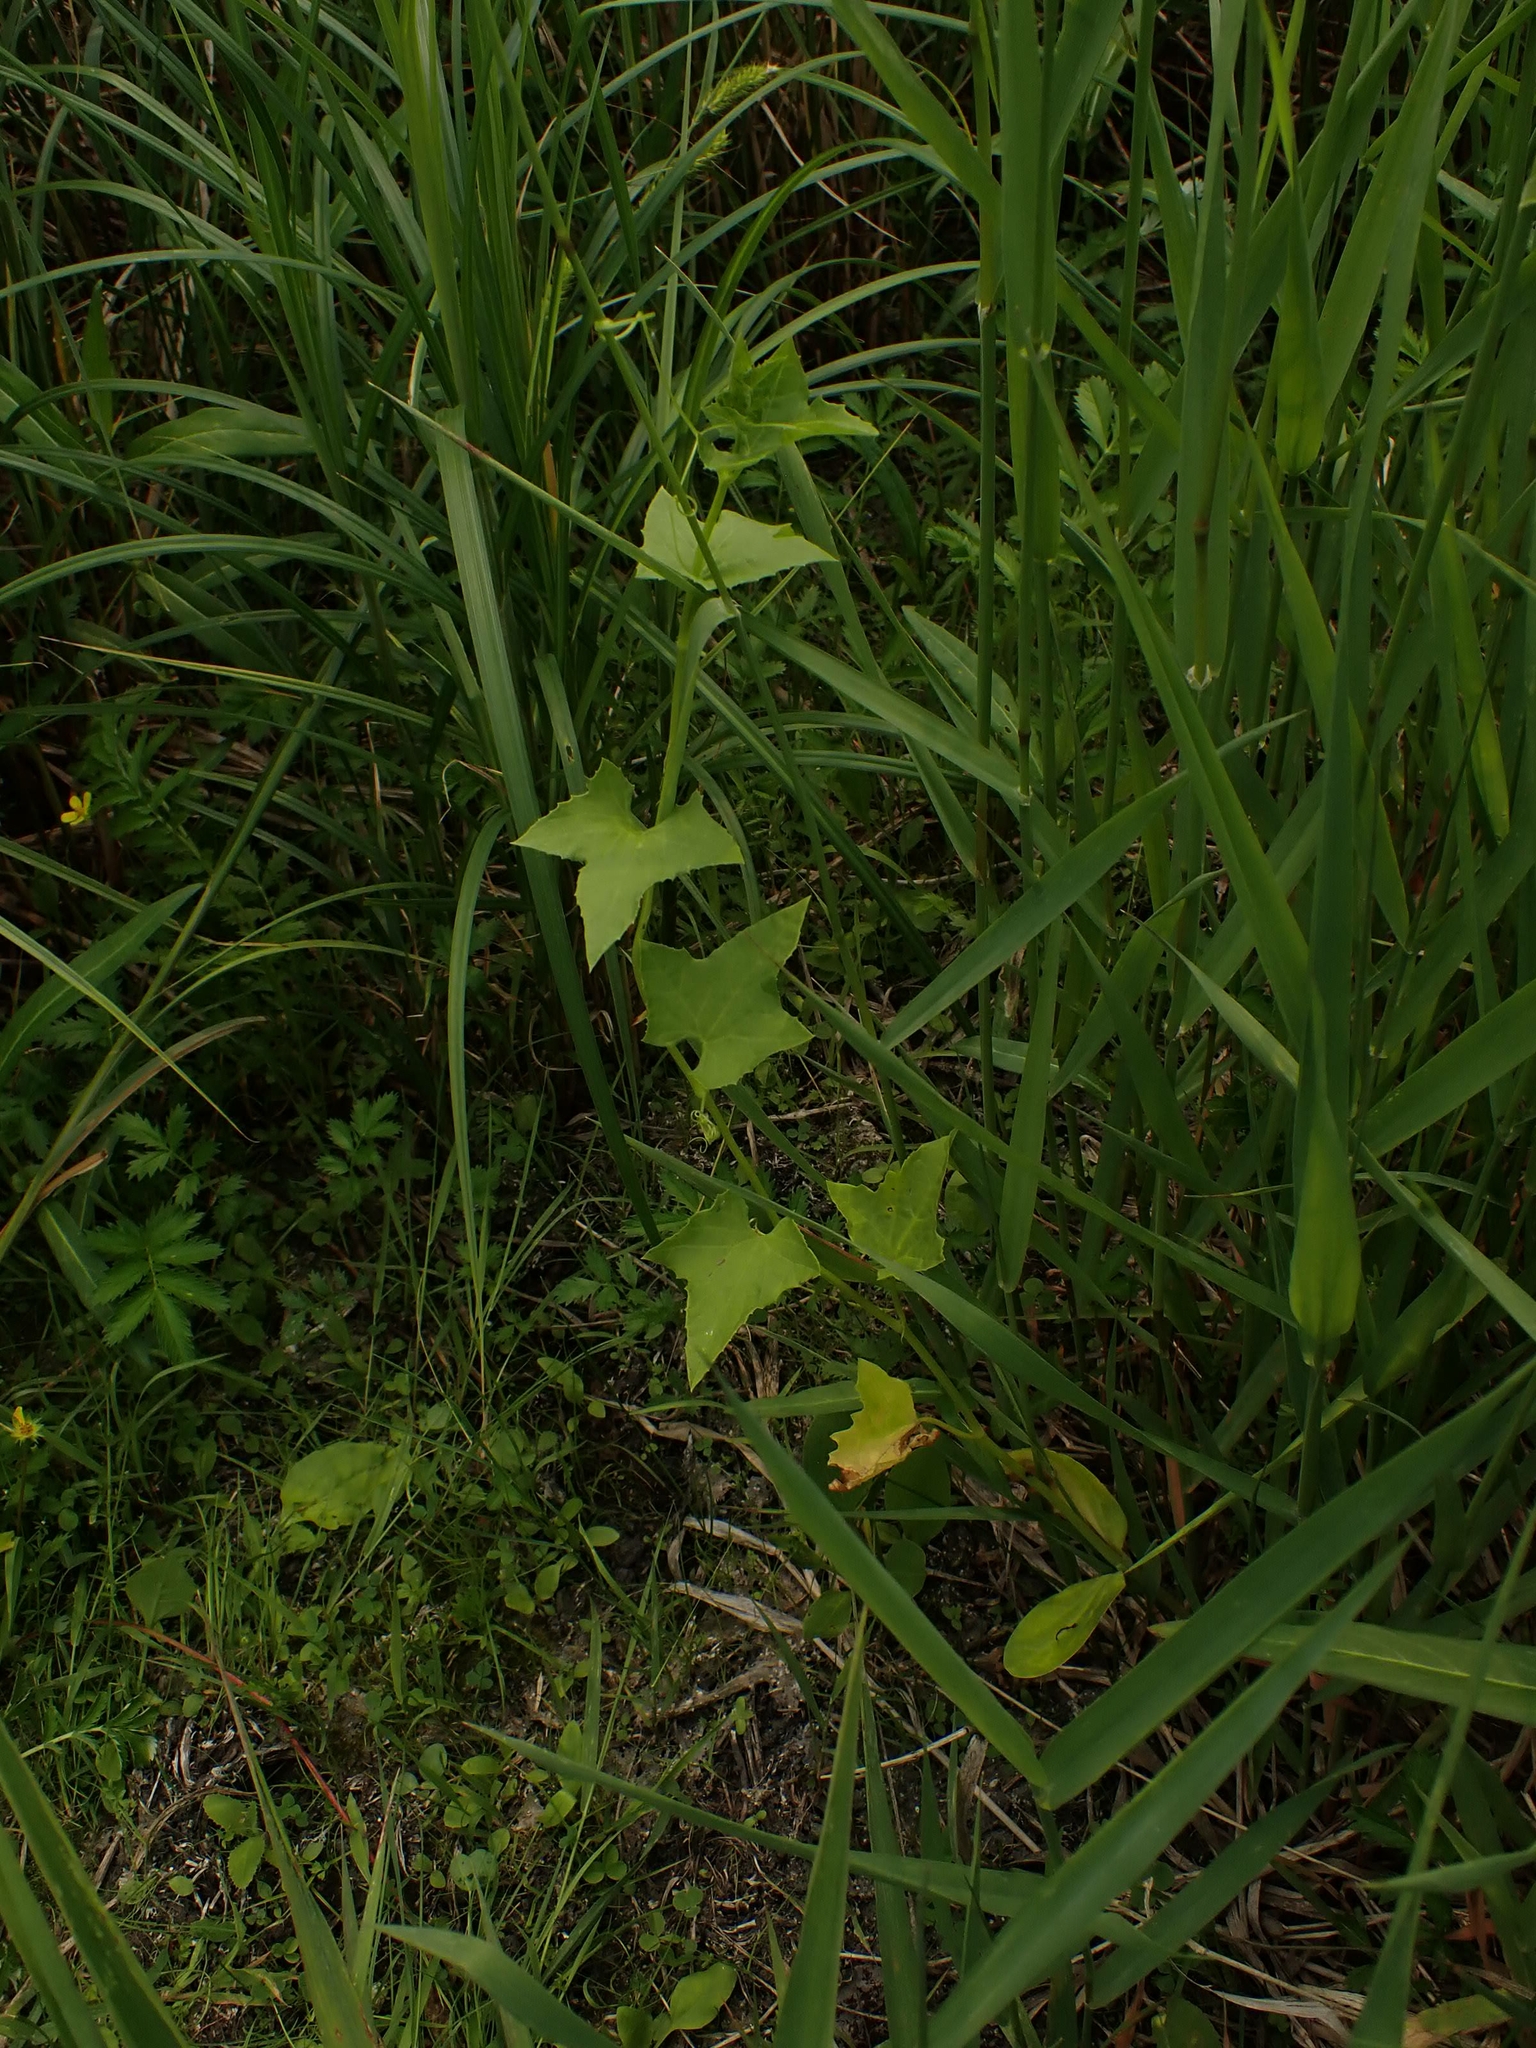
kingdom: Plantae
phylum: Tracheophyta
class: Magnoliopsida
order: Cucurbitales
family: Cucurbitaceae
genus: Echinocystis
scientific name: Echinocystis lobata
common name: Wild cucumber
